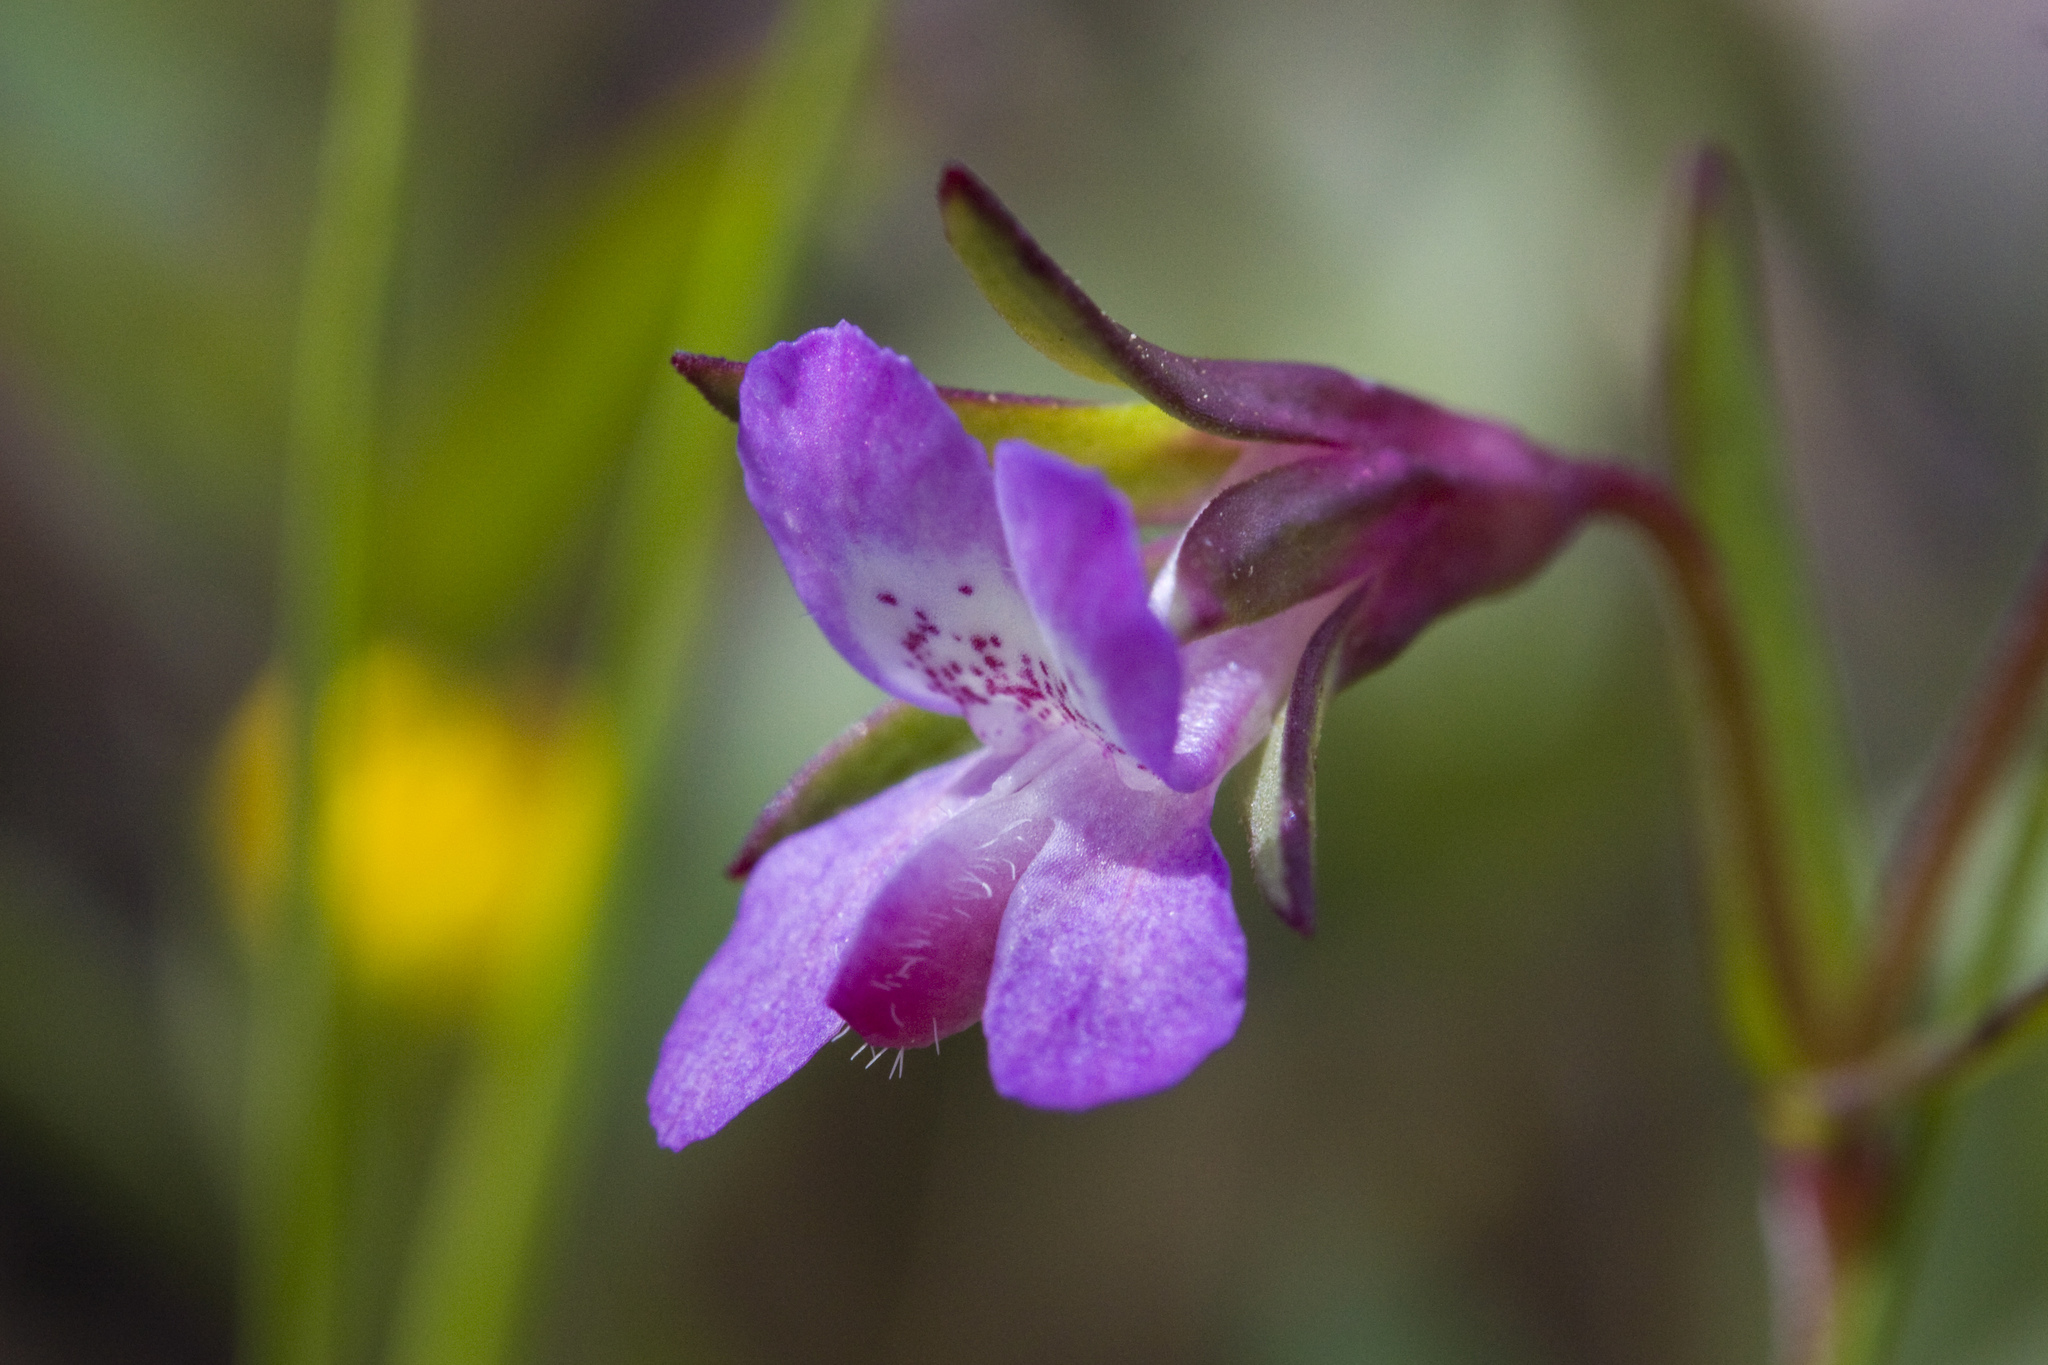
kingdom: Plantae
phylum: Tracheophyta
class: Magnoliopsida
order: Lamiales
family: Plantaginaceae
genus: Collinsia
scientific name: Collinsia sparsiflora
